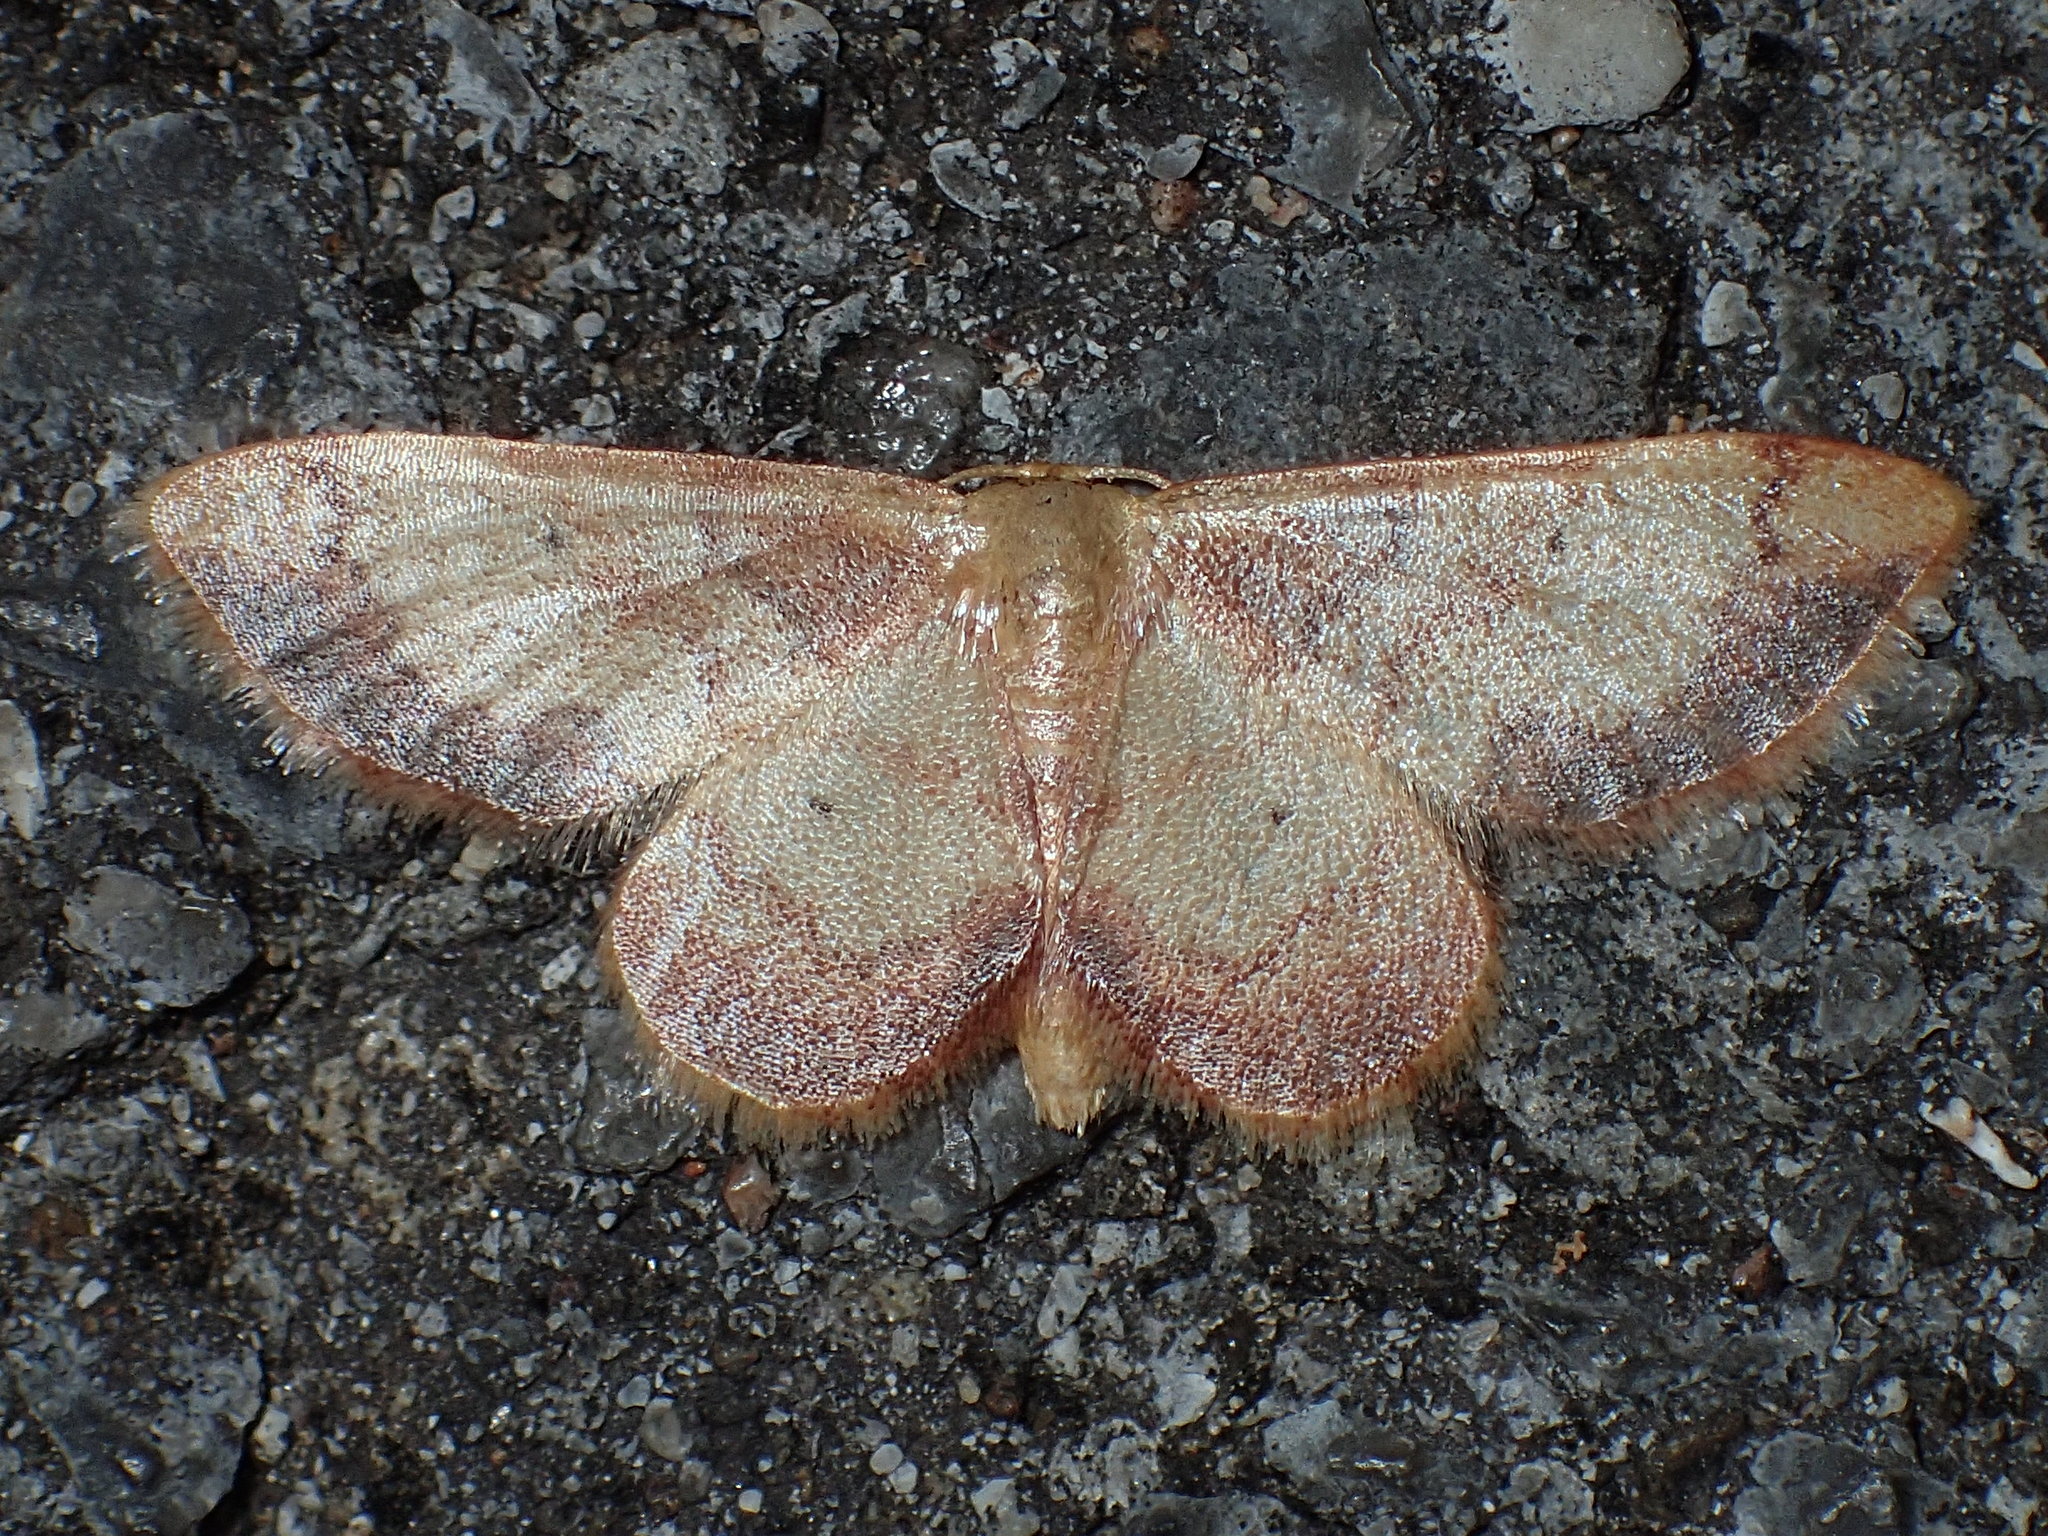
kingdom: Animalia
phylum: Arthropoda
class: Insecta
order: Lepidoptera
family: Geometridae
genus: Idaea
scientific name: Idaea demissaria
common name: Red-bordered wave
